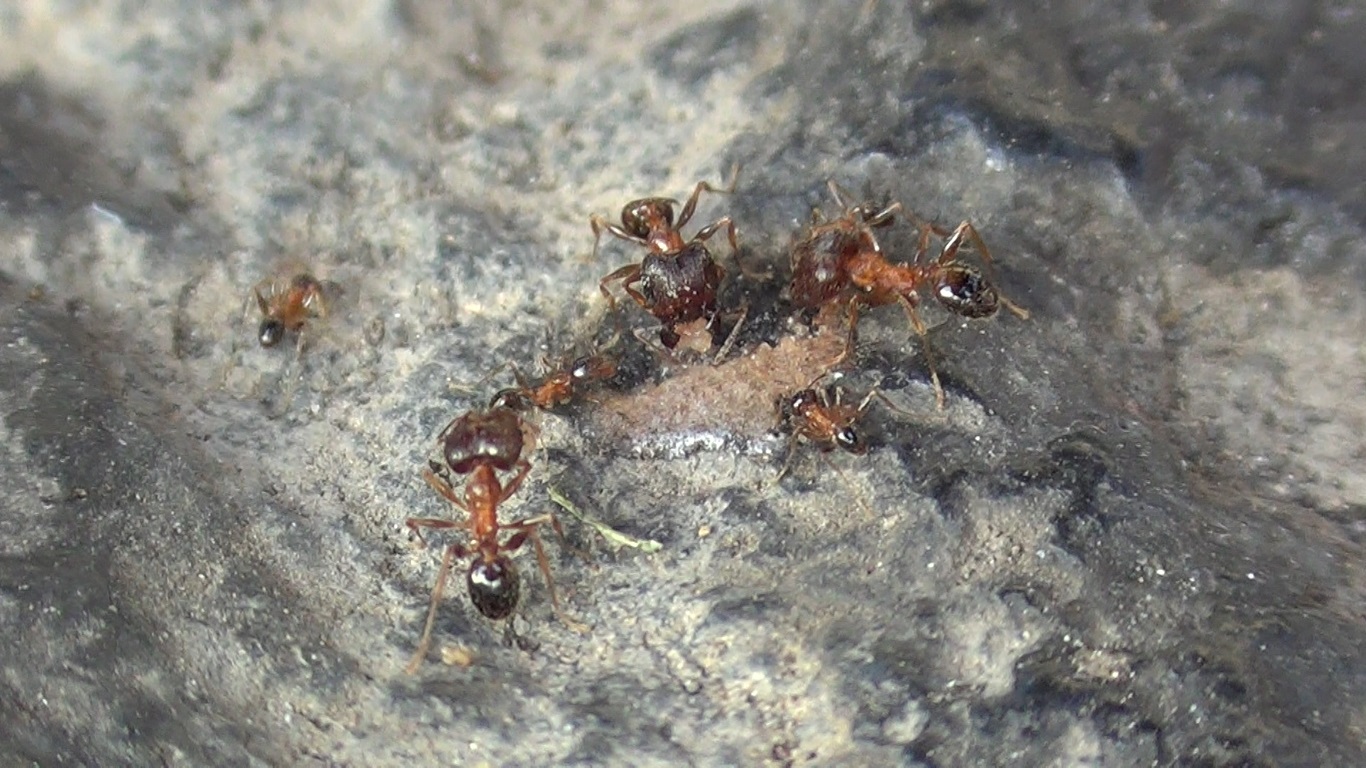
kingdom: Animalia
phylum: Arthropoda
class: Insecta
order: Hymenoptera
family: Formicidae
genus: Pheidole
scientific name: Pheidole indica
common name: Big-headed ant
